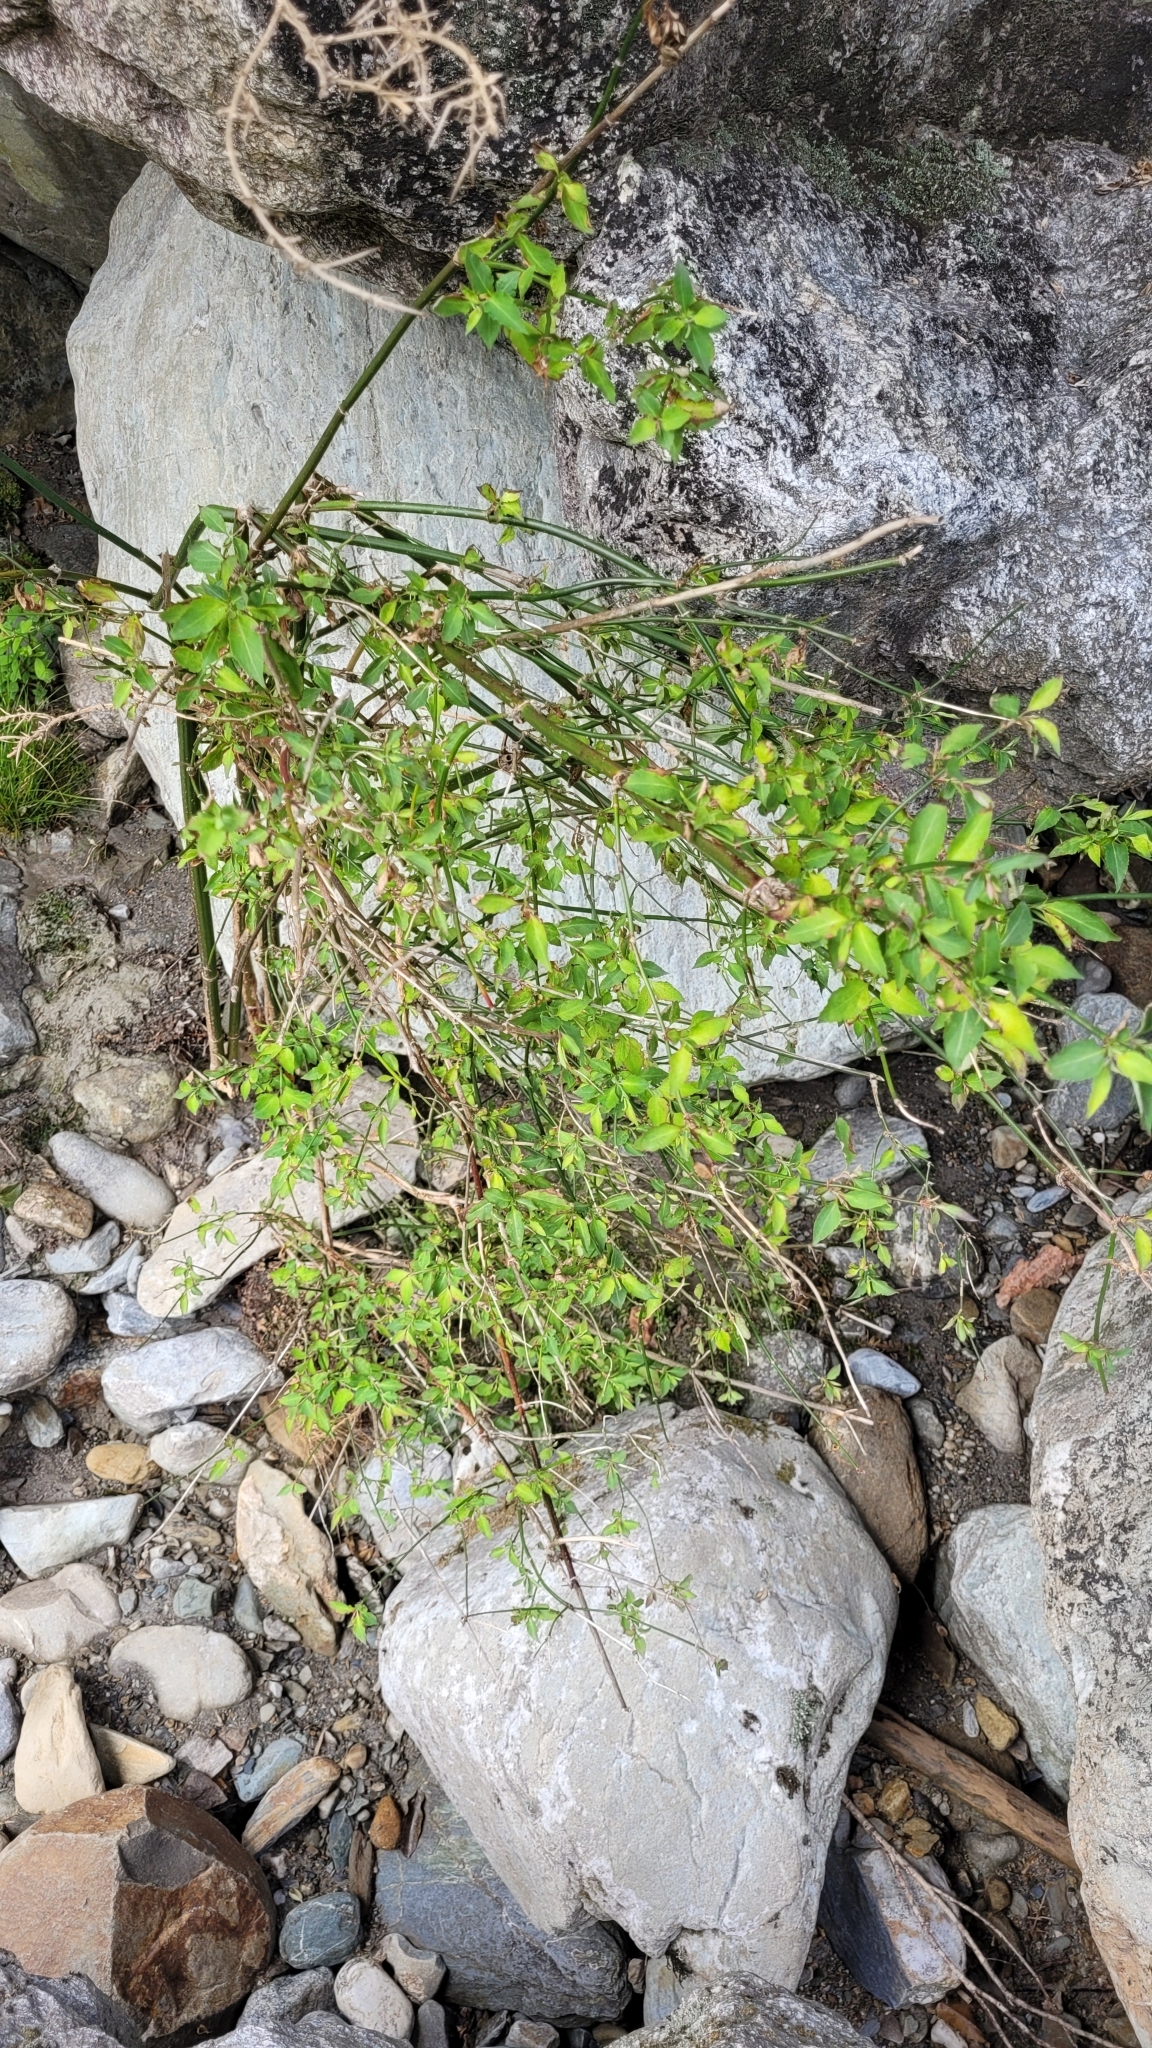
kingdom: Plantae
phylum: Tracheophyta
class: Magnoliopsida
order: Dipsacales
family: Caprifoliaceae
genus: Leycesteria
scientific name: Leycesteria formosa
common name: Himalayan honeysuckle
